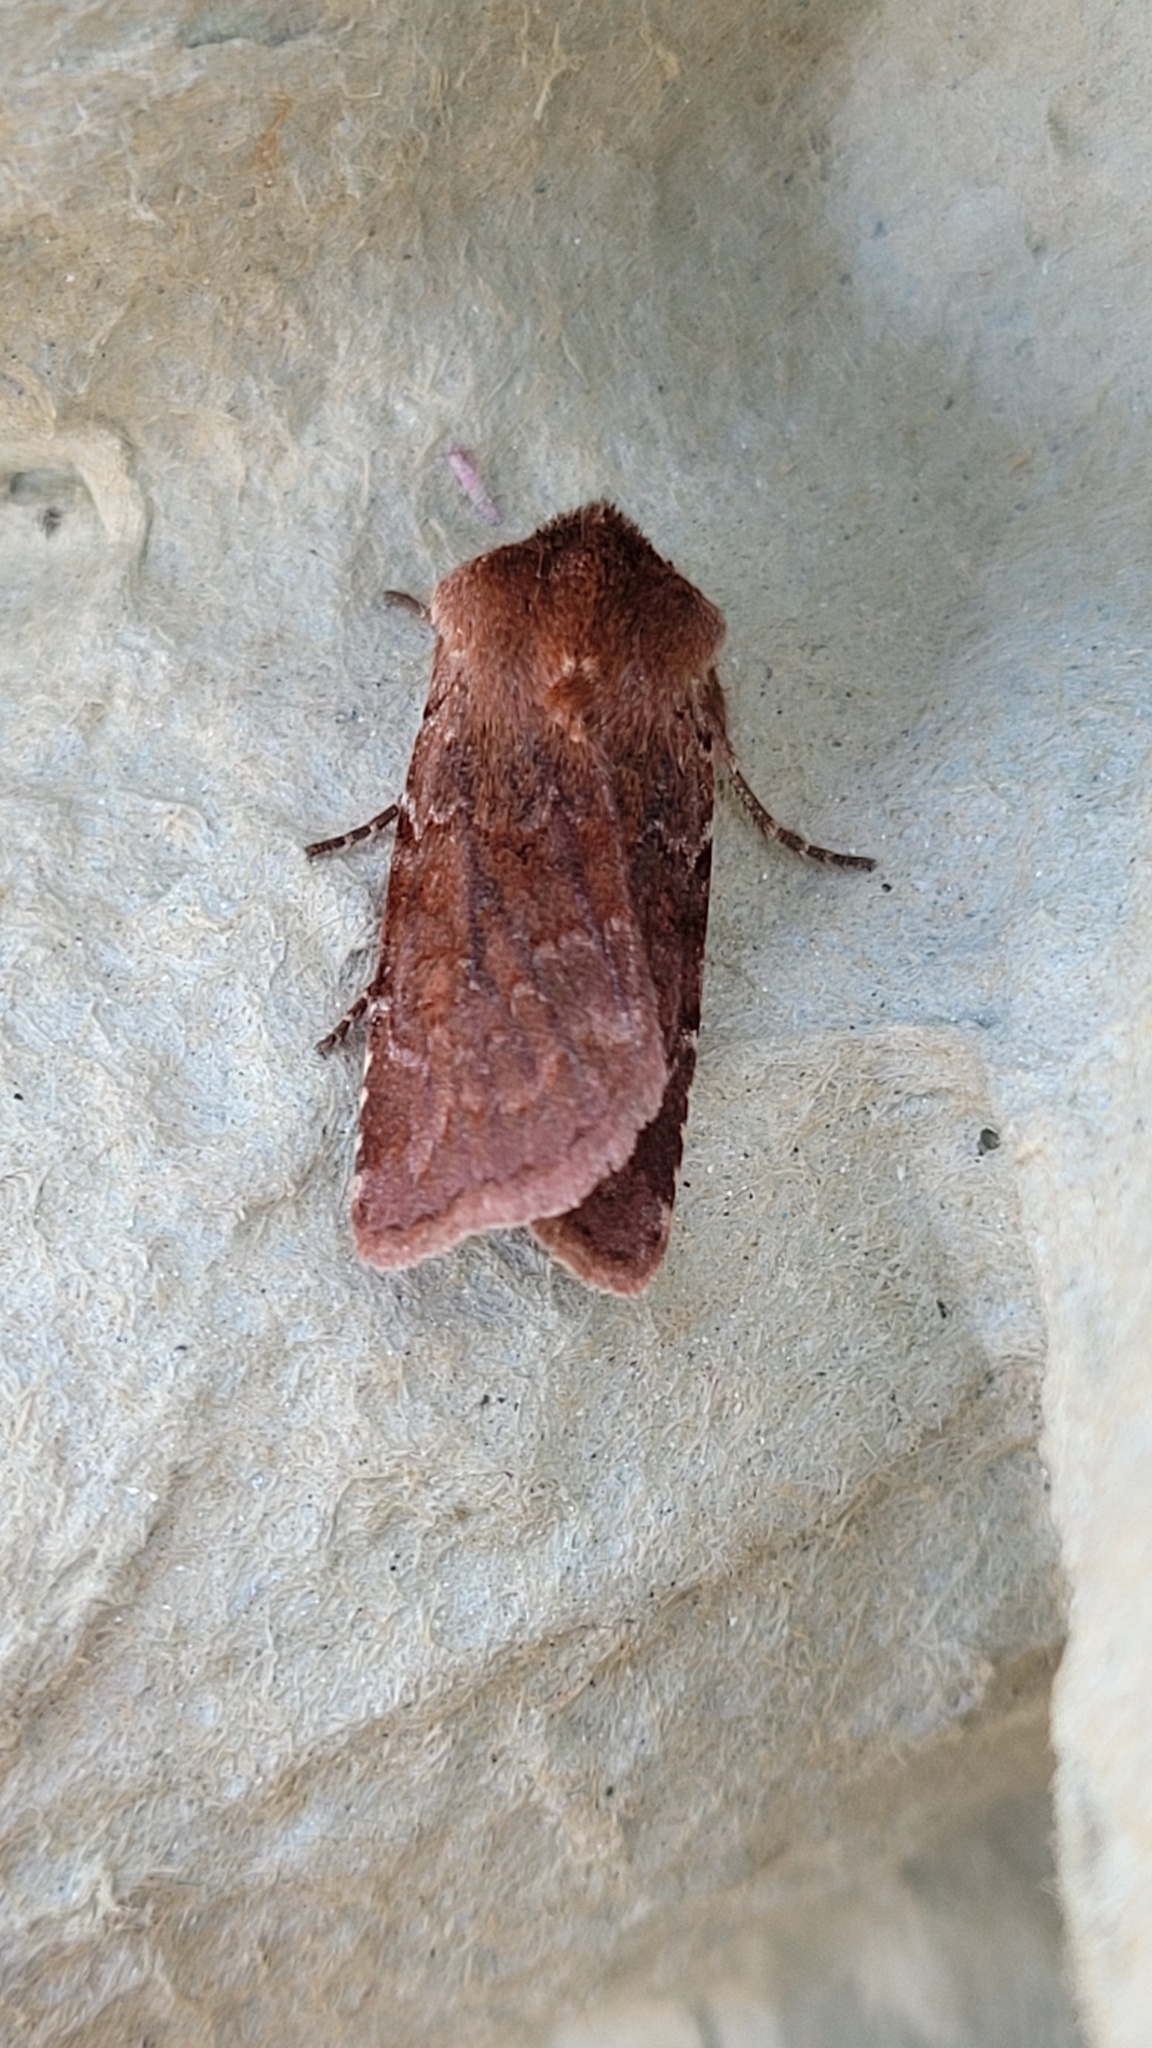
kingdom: Animalia
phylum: Arthropoda
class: Insecta
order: Lepidoptera
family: Noctuidae
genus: Cerastis
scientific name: Cerastis rubricosa
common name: Red chestnut
